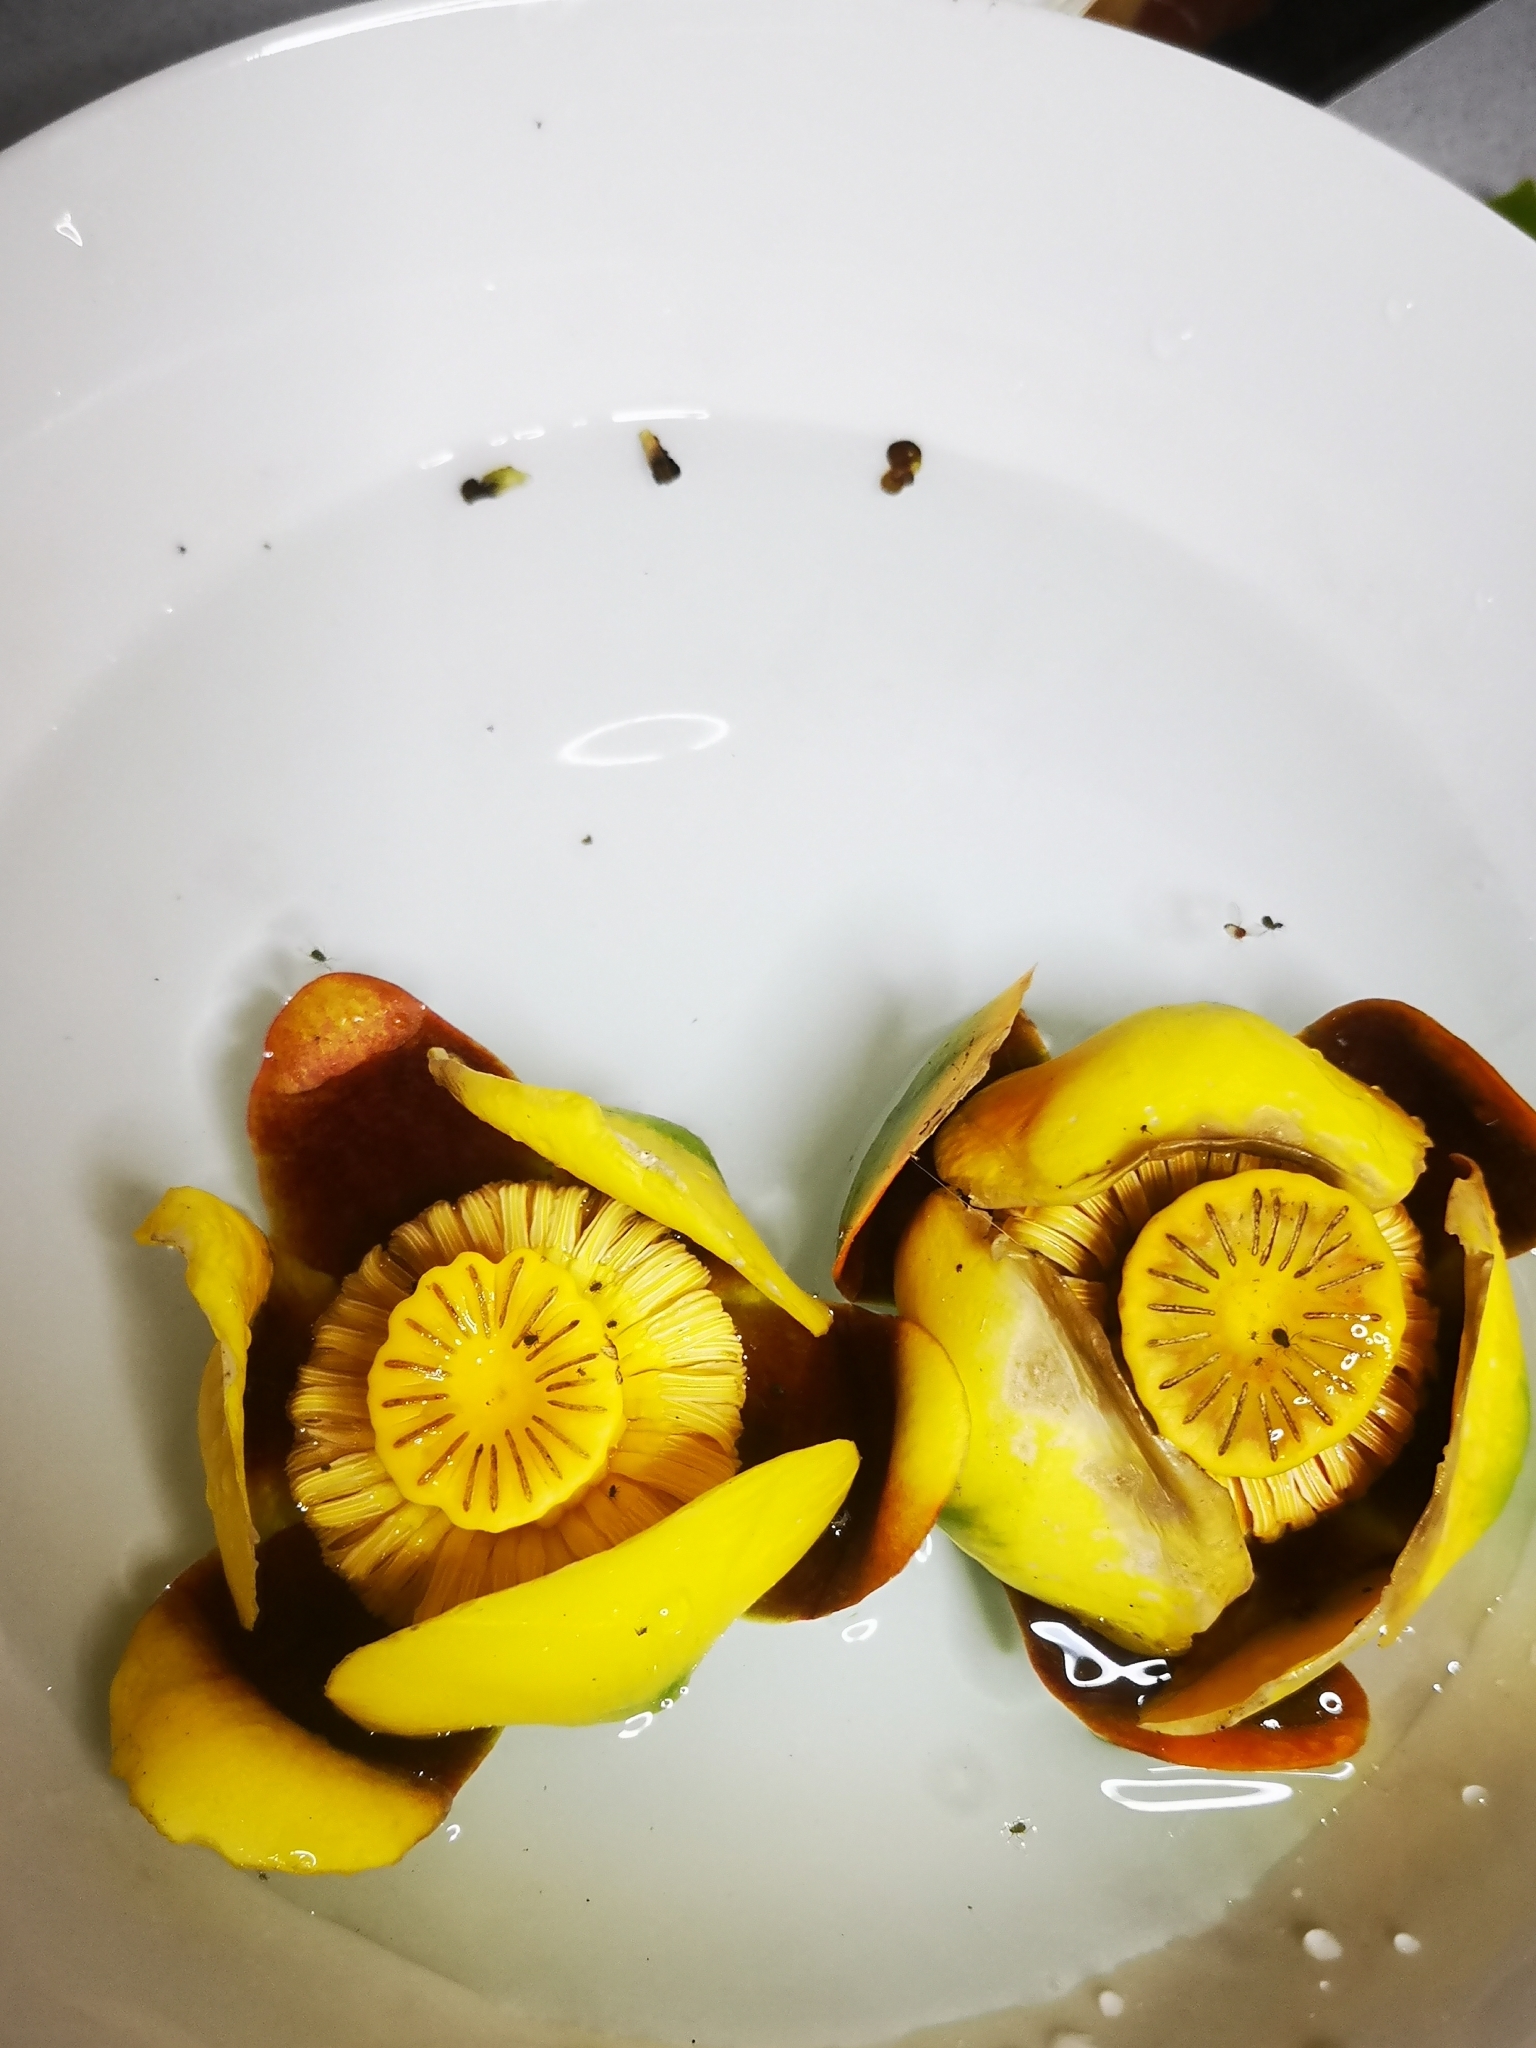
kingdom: Plantae
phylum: Tracheophyta
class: Magnoliopsida
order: Nymphaeales
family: Nymphaeaceae
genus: Nuphar
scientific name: Nuphar variegata
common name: Beaver-root
